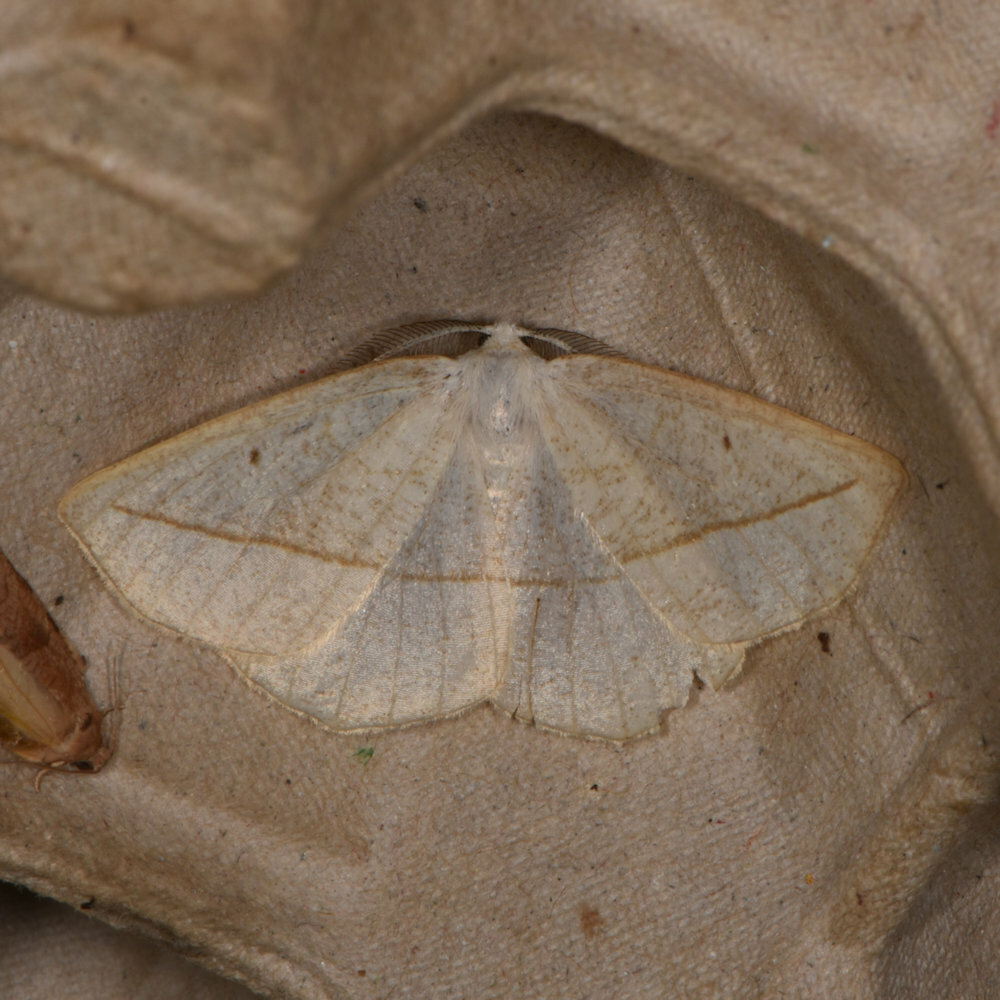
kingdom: Animalia
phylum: Arthropoda
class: Insecta
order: Lepidoptera
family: Geometridae
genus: Eusarca
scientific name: Eusarca confusaria
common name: Confused eusarca
